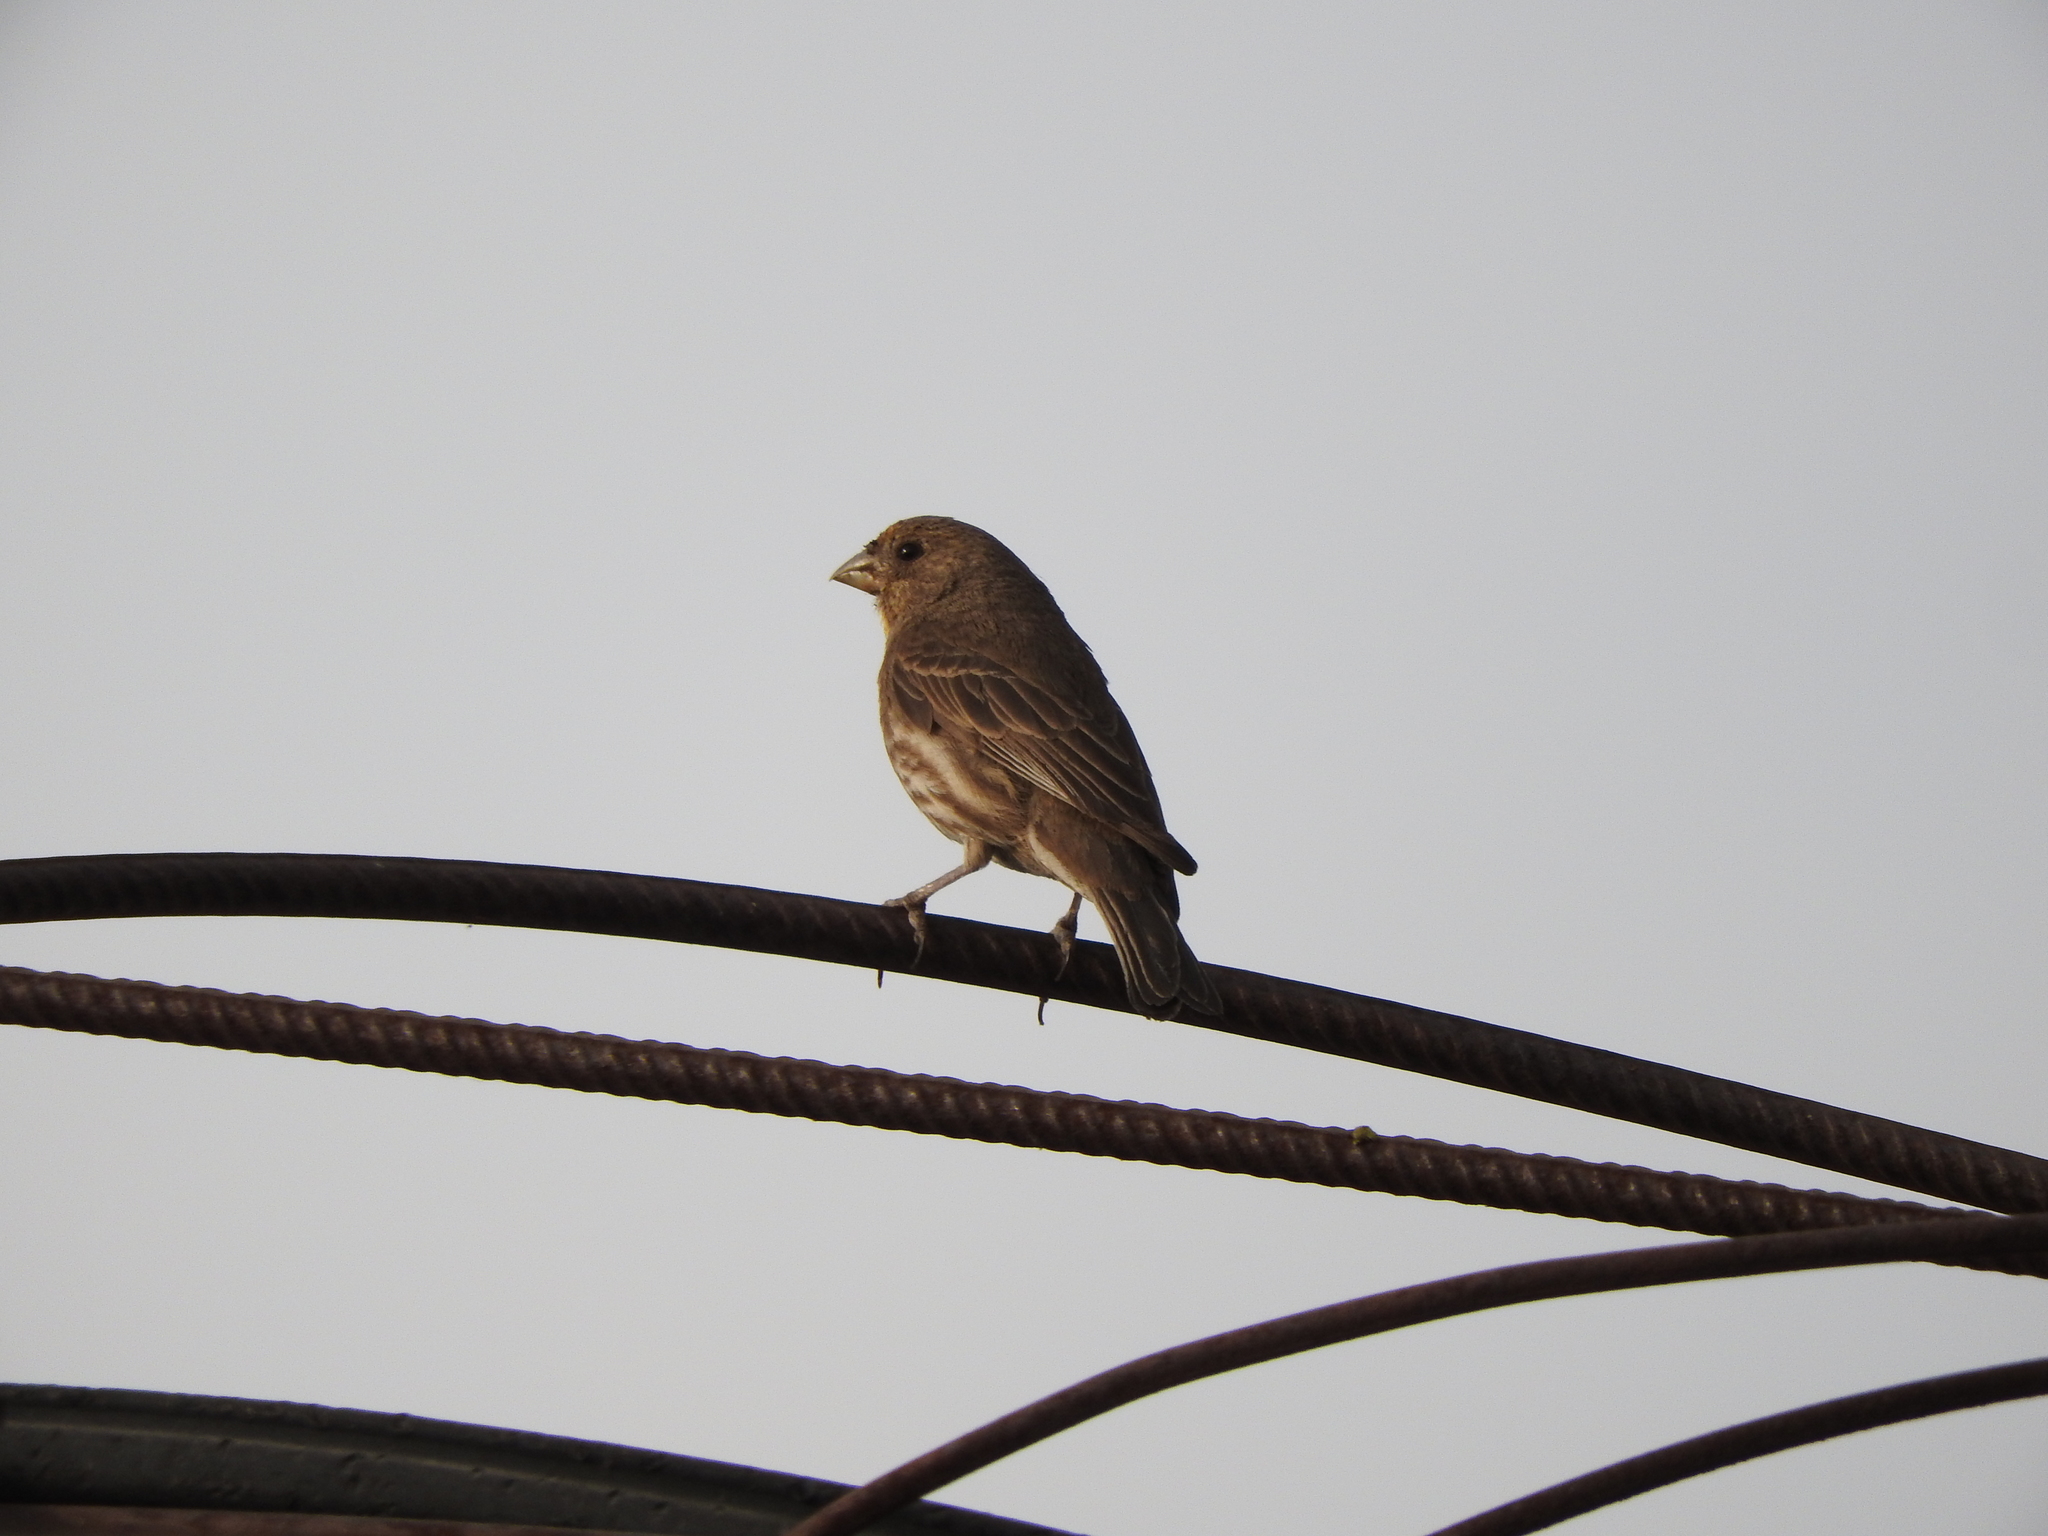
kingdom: Animalia
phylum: Chordata
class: Aves
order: Passeriformes
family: Fringillidae
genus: Haemorhous
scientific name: Haemorhous mexicanus
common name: House finch
